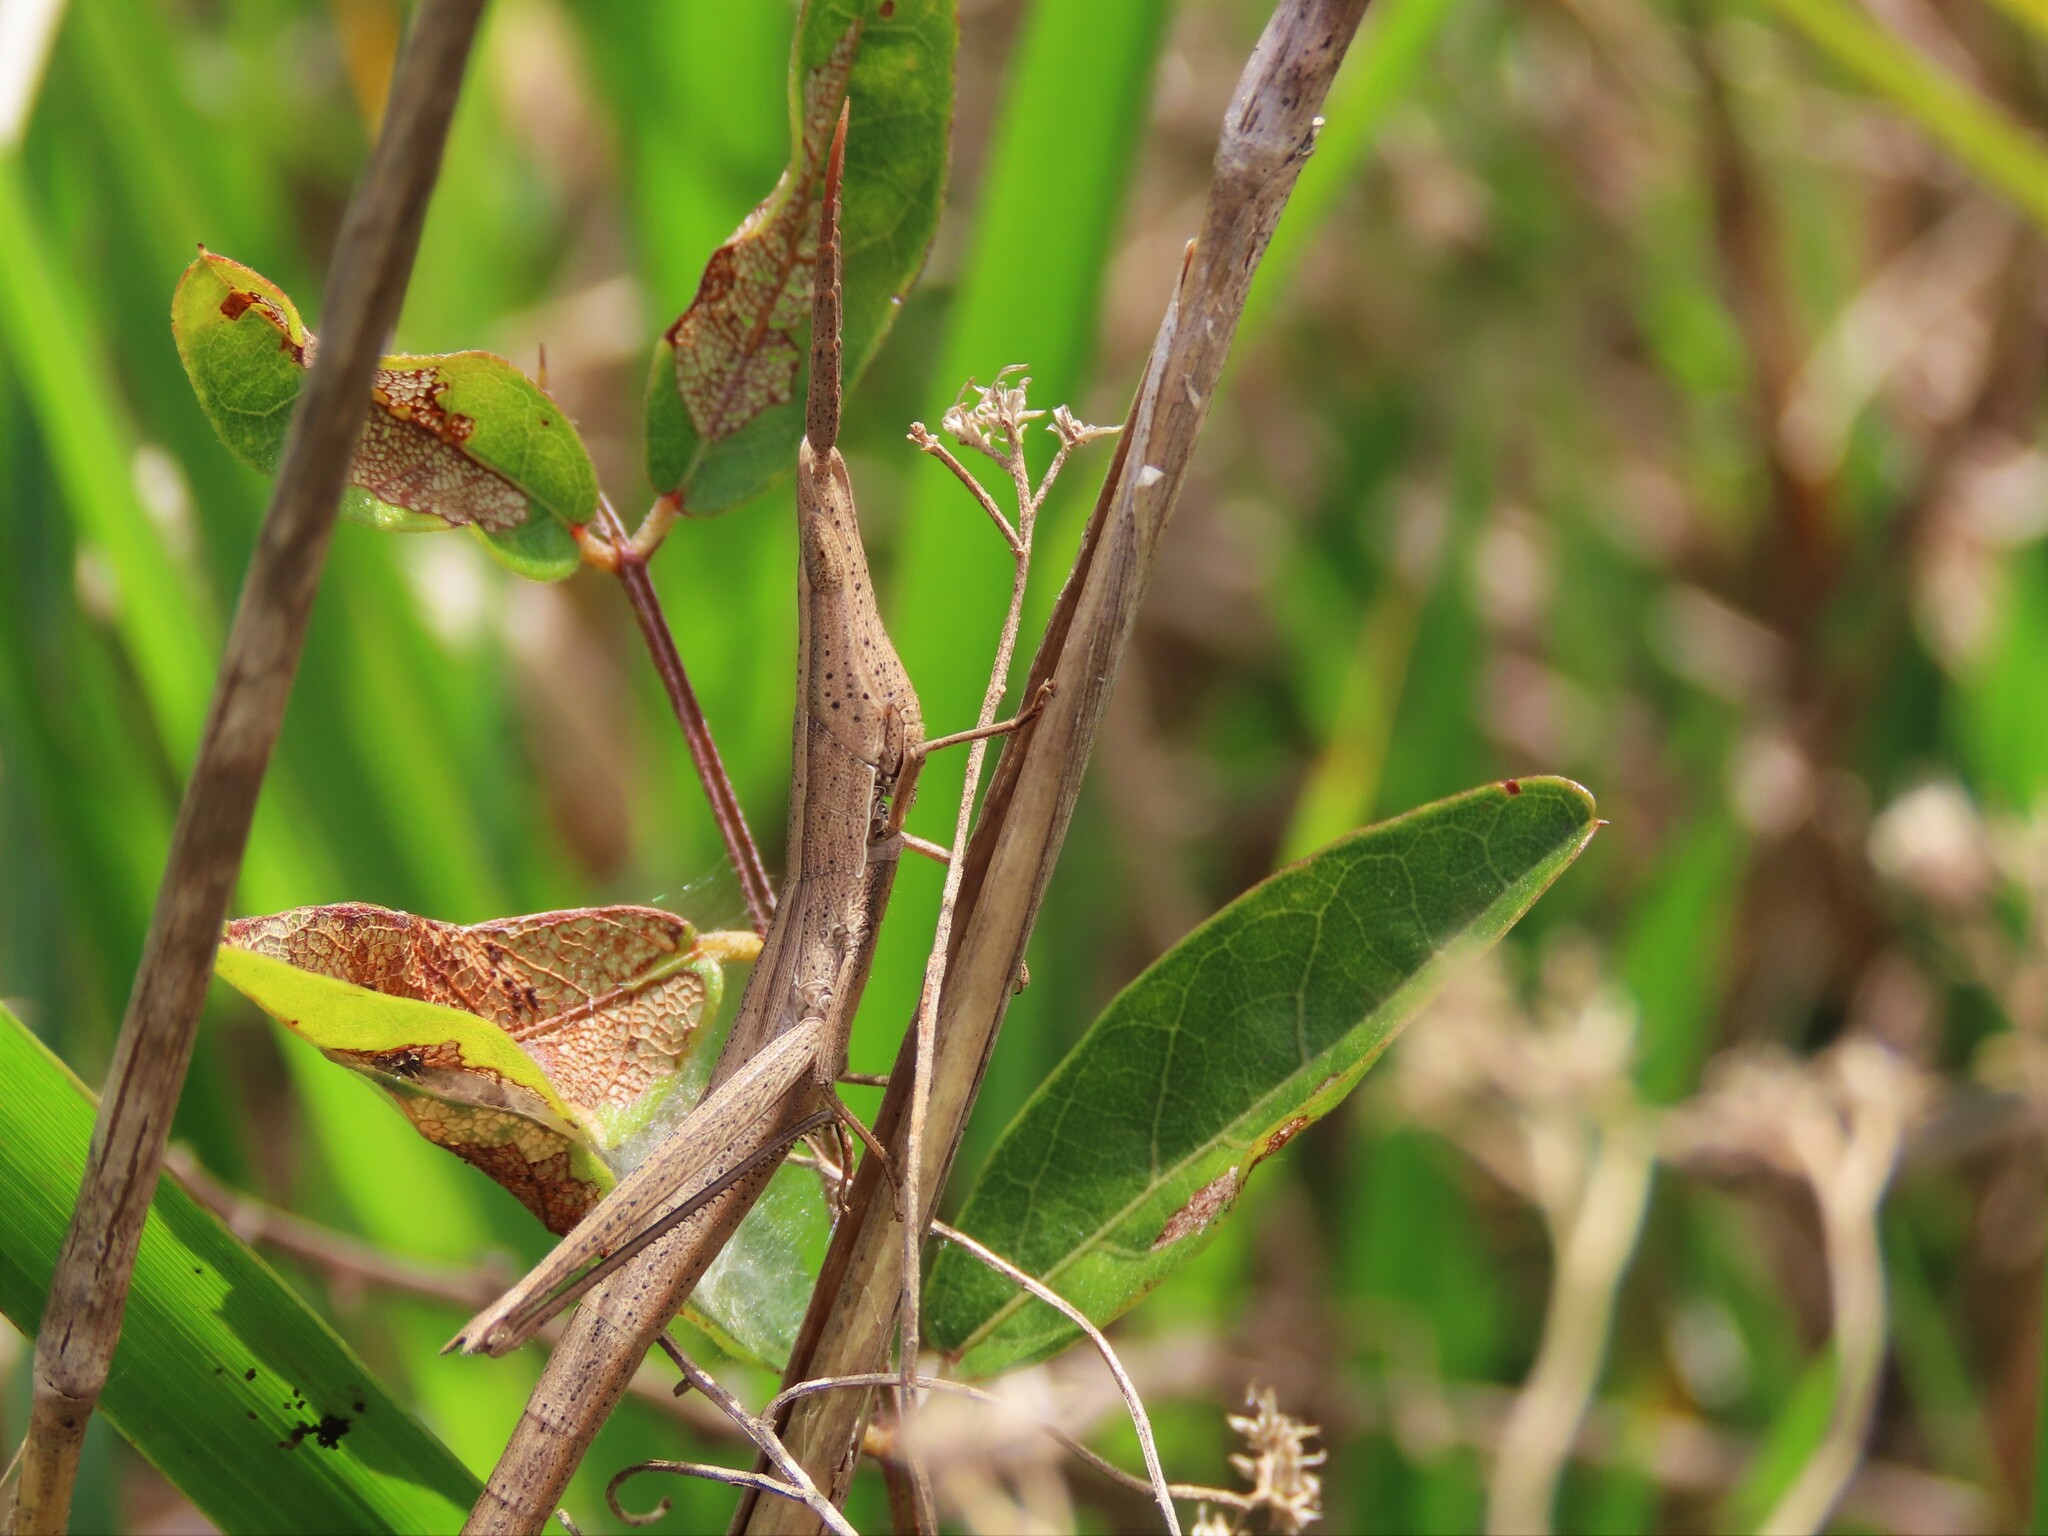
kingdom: Animalia
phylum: Arthropoda
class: Insecta
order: Orthoptera
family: Acrididae
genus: Achurum
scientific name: Achurum carinatum
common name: Long-headed toothpick grasshopper
